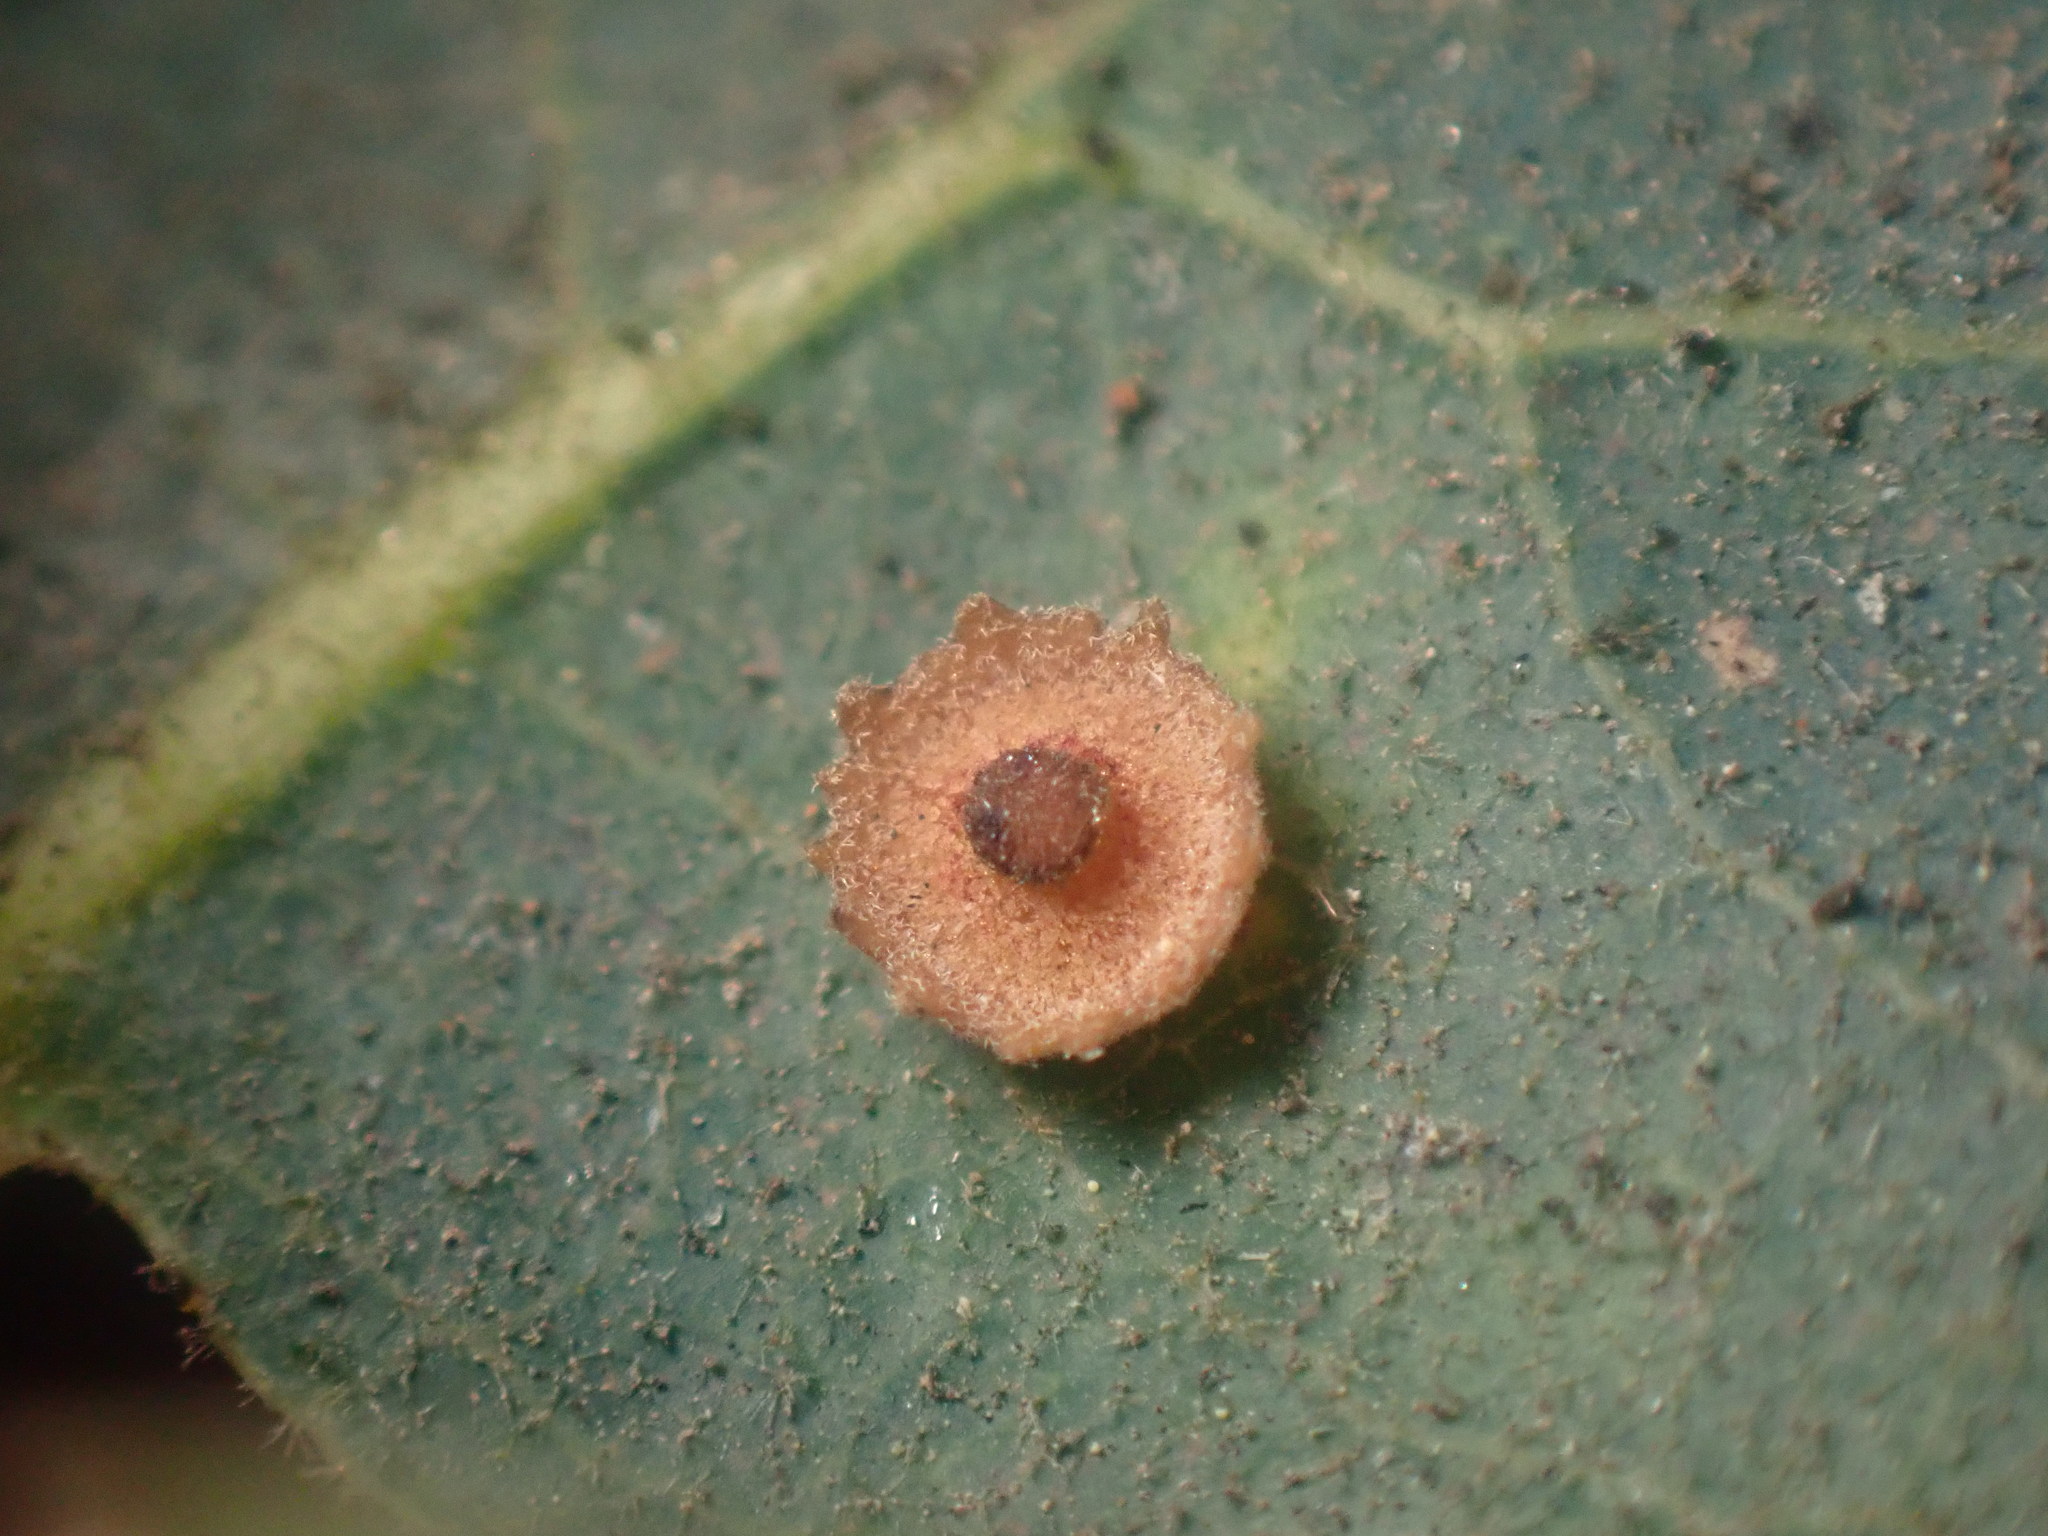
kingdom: Animalia
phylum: Arthropoda
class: Insecta
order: Hymenoptera
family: Cynipidae
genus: Andricus
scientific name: Andricus
